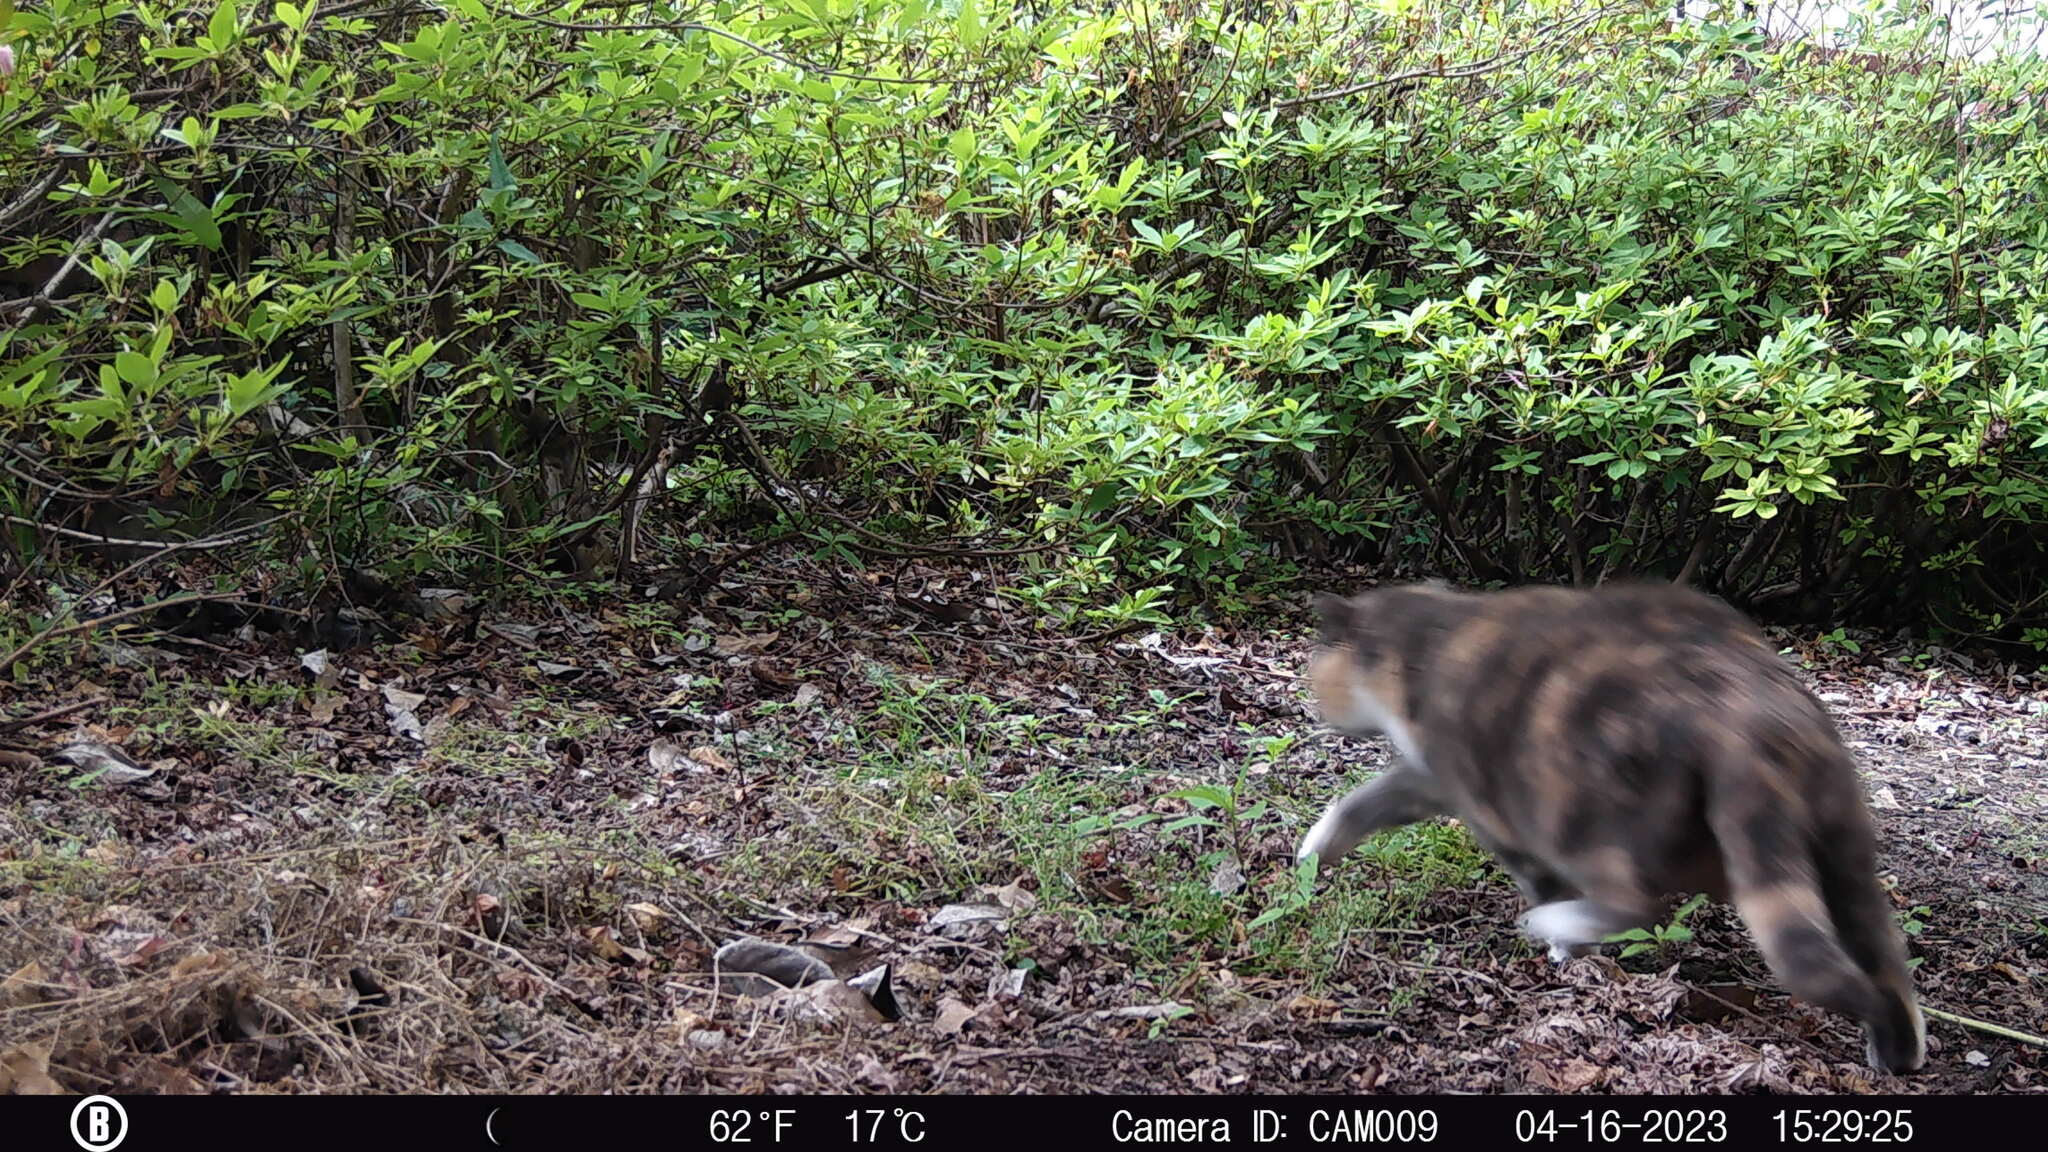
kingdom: Animalia
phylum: Chordata
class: Mammalia
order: Carnivora
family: Felidae
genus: Felis
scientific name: Felis catus
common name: Domestic cat
